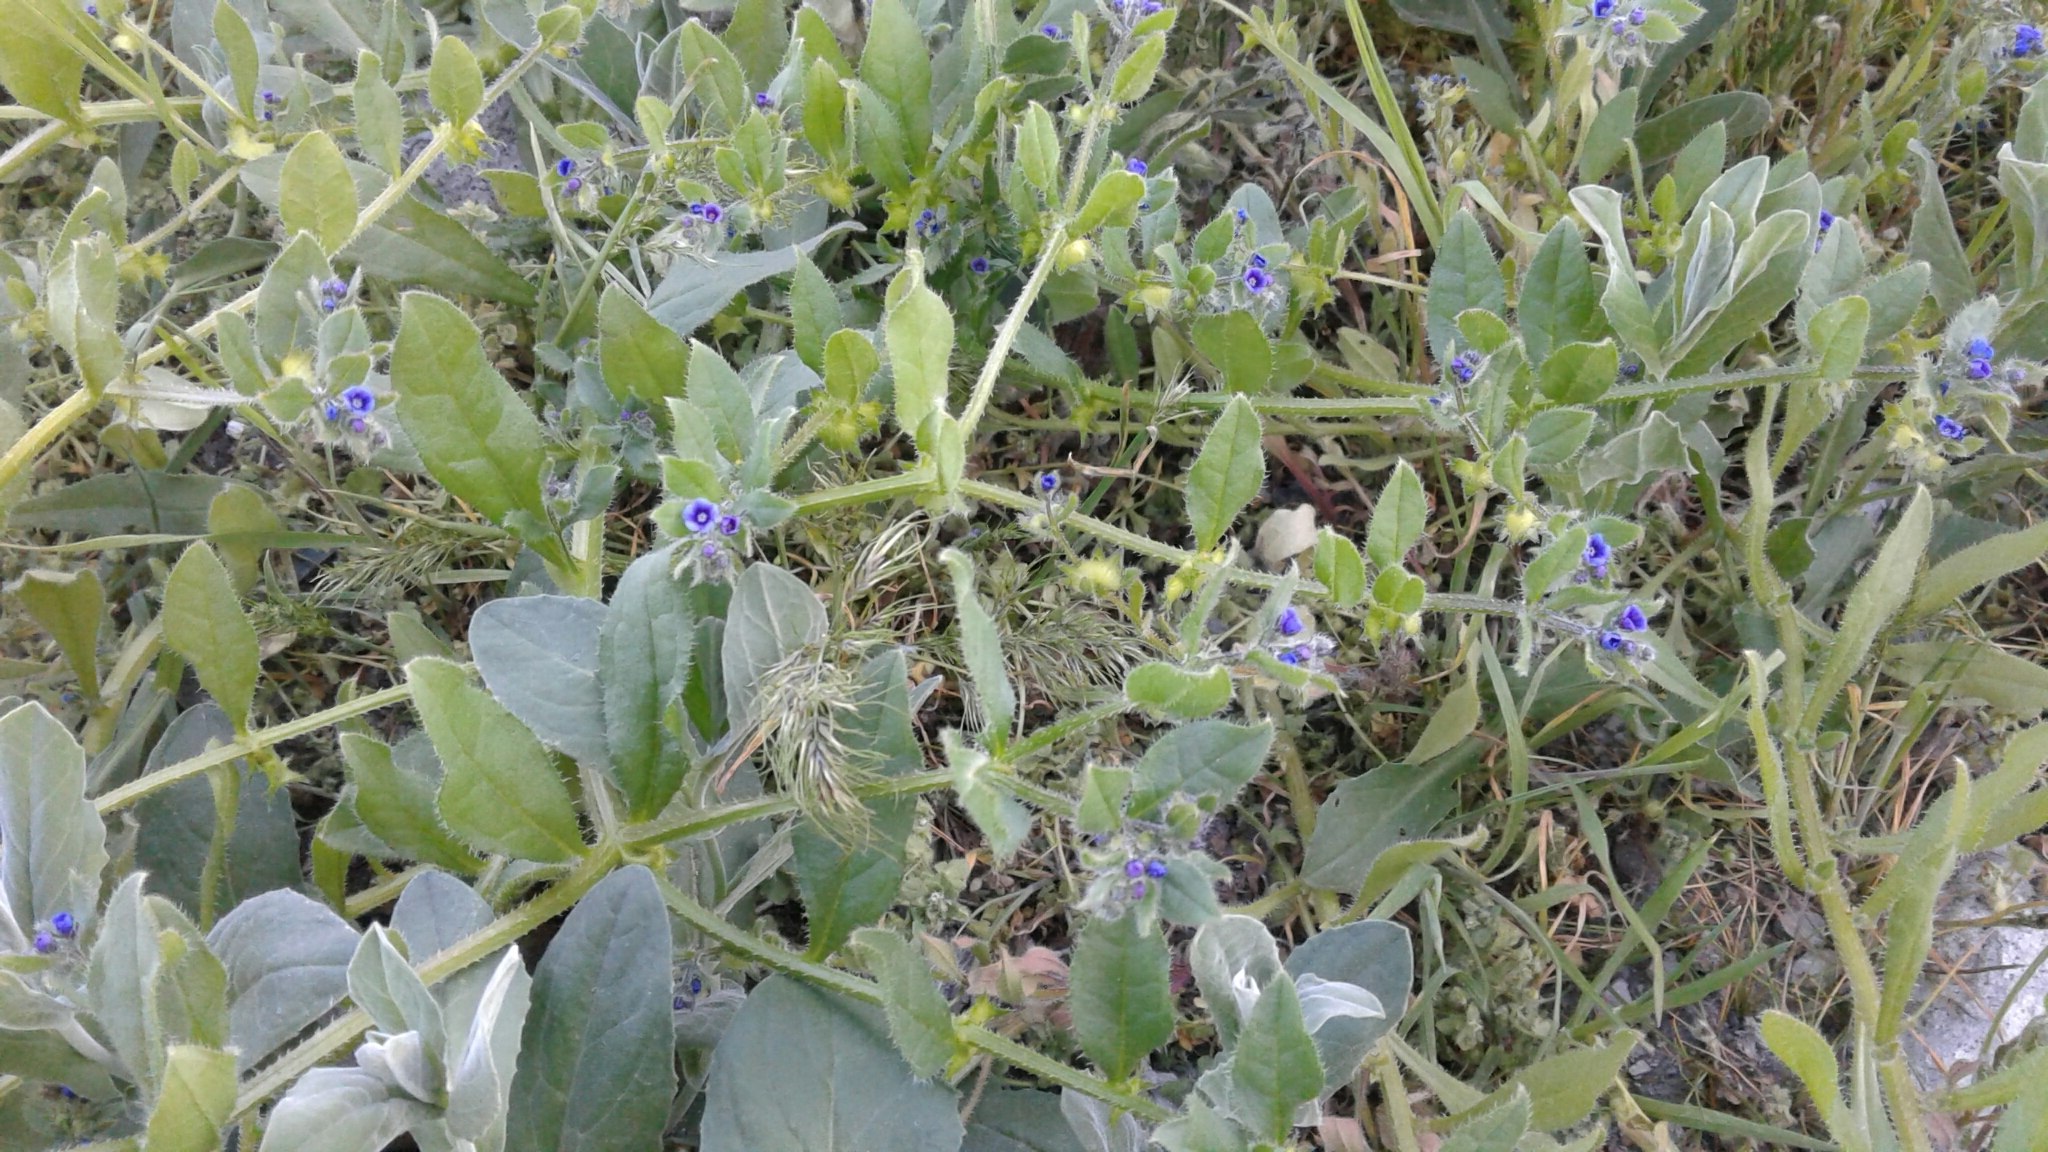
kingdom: Plantae
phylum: Tracheophyta
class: Magnoliopsida
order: Boraginales
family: Boraginaceae
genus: Asperugo
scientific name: Asperugo procumbens
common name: Madwort
